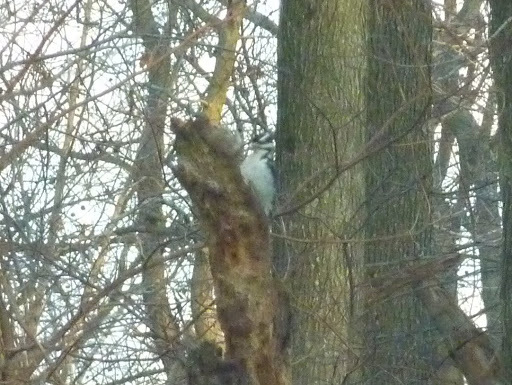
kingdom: Animalia
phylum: Chordata
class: Aves
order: Piciformes
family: Picidae
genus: Leuconotopicus
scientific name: Leuconotopicus villosus
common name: Hairy woodpecker
